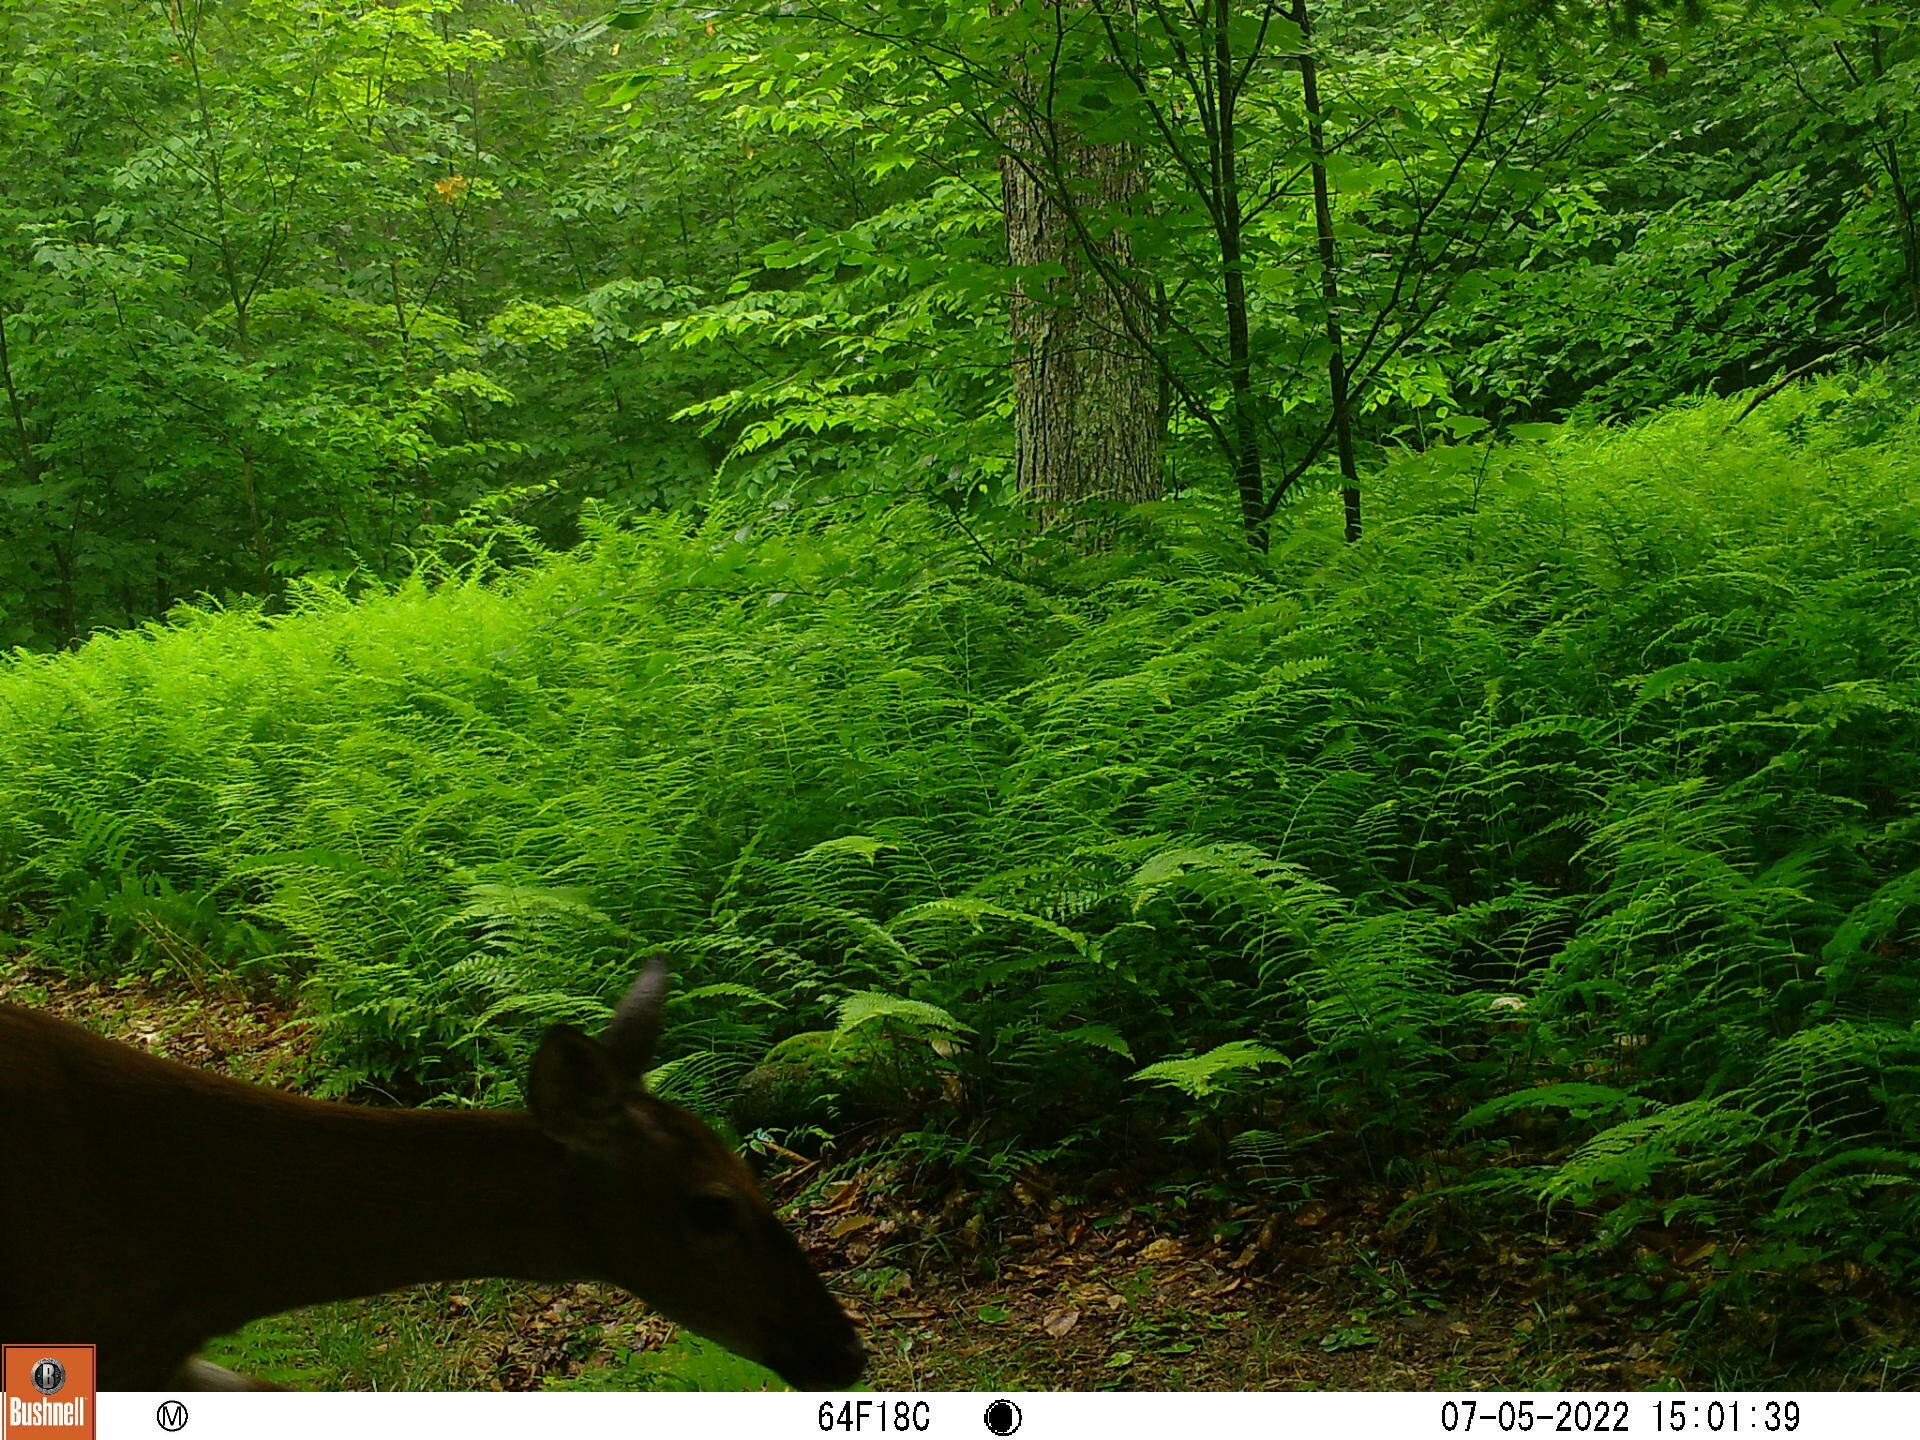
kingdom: Animalia
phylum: Chordata
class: Mammalia
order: Artiodactyla
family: Cervidae
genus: Odocoileus
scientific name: Odocoileus virginianus
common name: White-tailed deer
